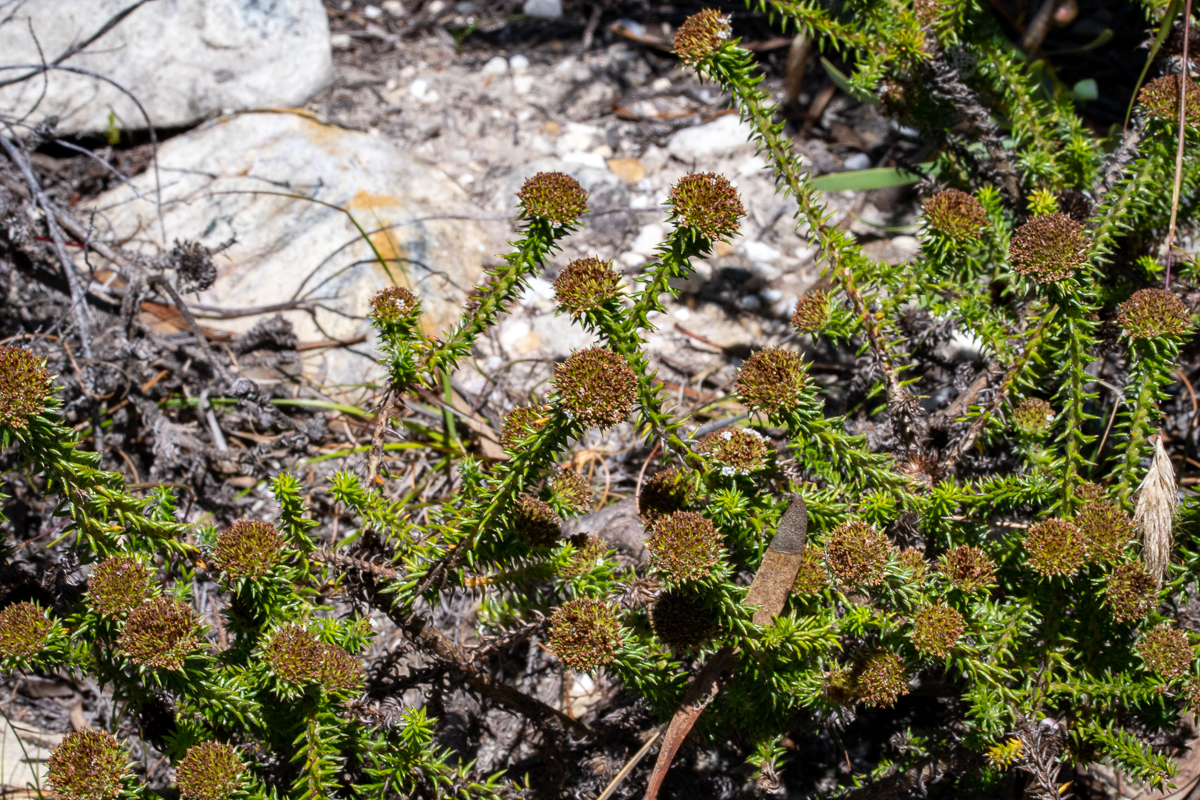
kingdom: Plantae
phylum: Tracheophyta
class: Magnoliopsida
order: Asterales
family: Asteraceae
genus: Stoebe
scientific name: Stoebe aethiopica
